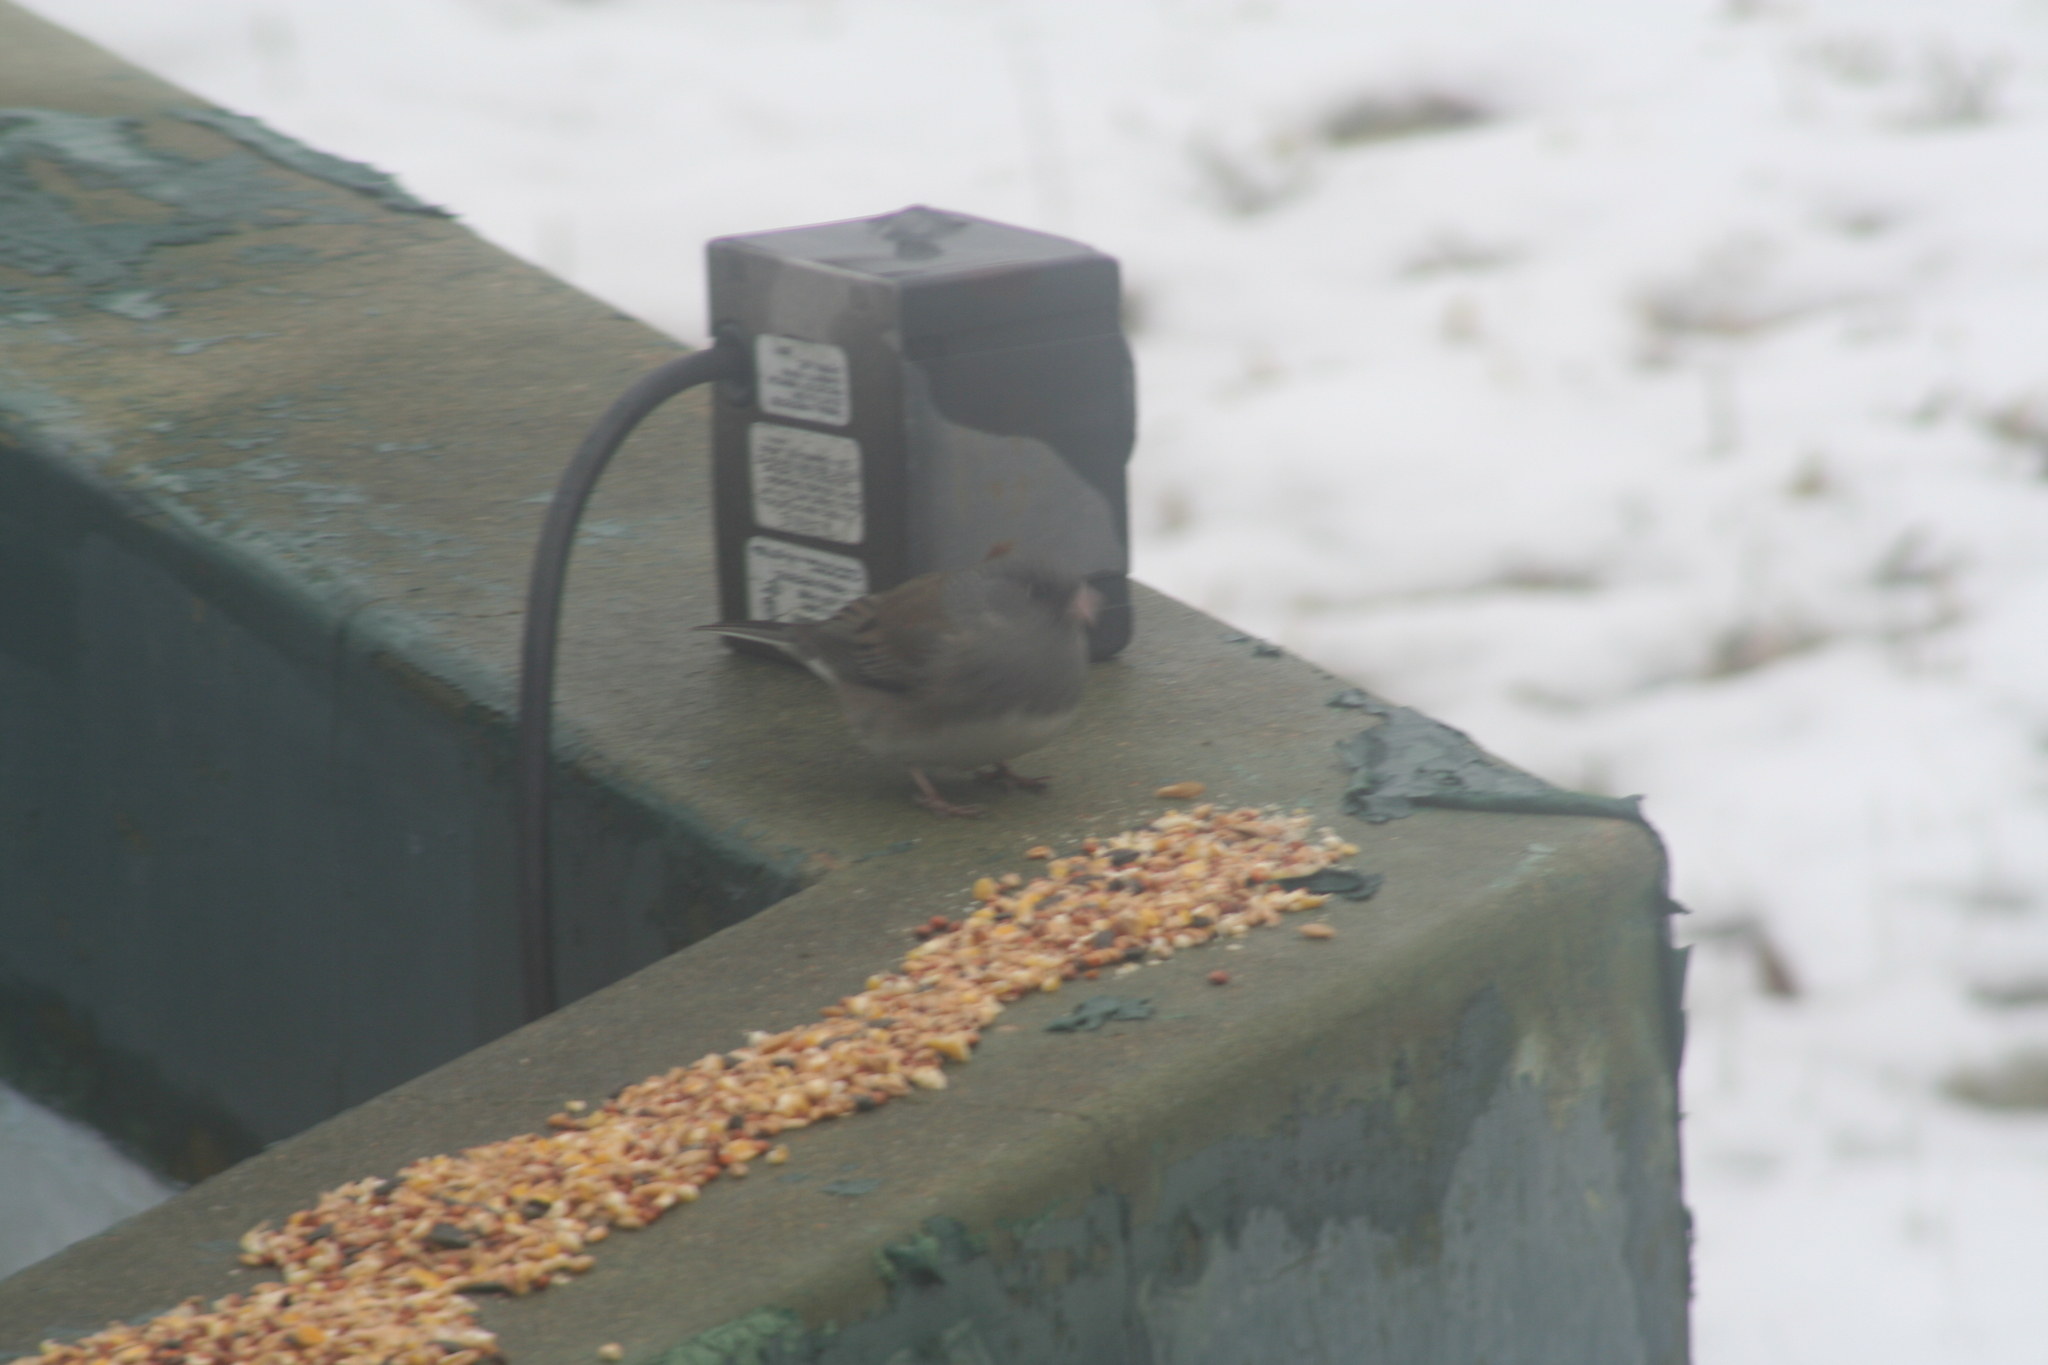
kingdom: Animalia
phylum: Chordata
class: Aves
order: Passeriformes
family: Passerellidae
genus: Junco
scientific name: Junco hyemalis
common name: Dark-eyed junco
